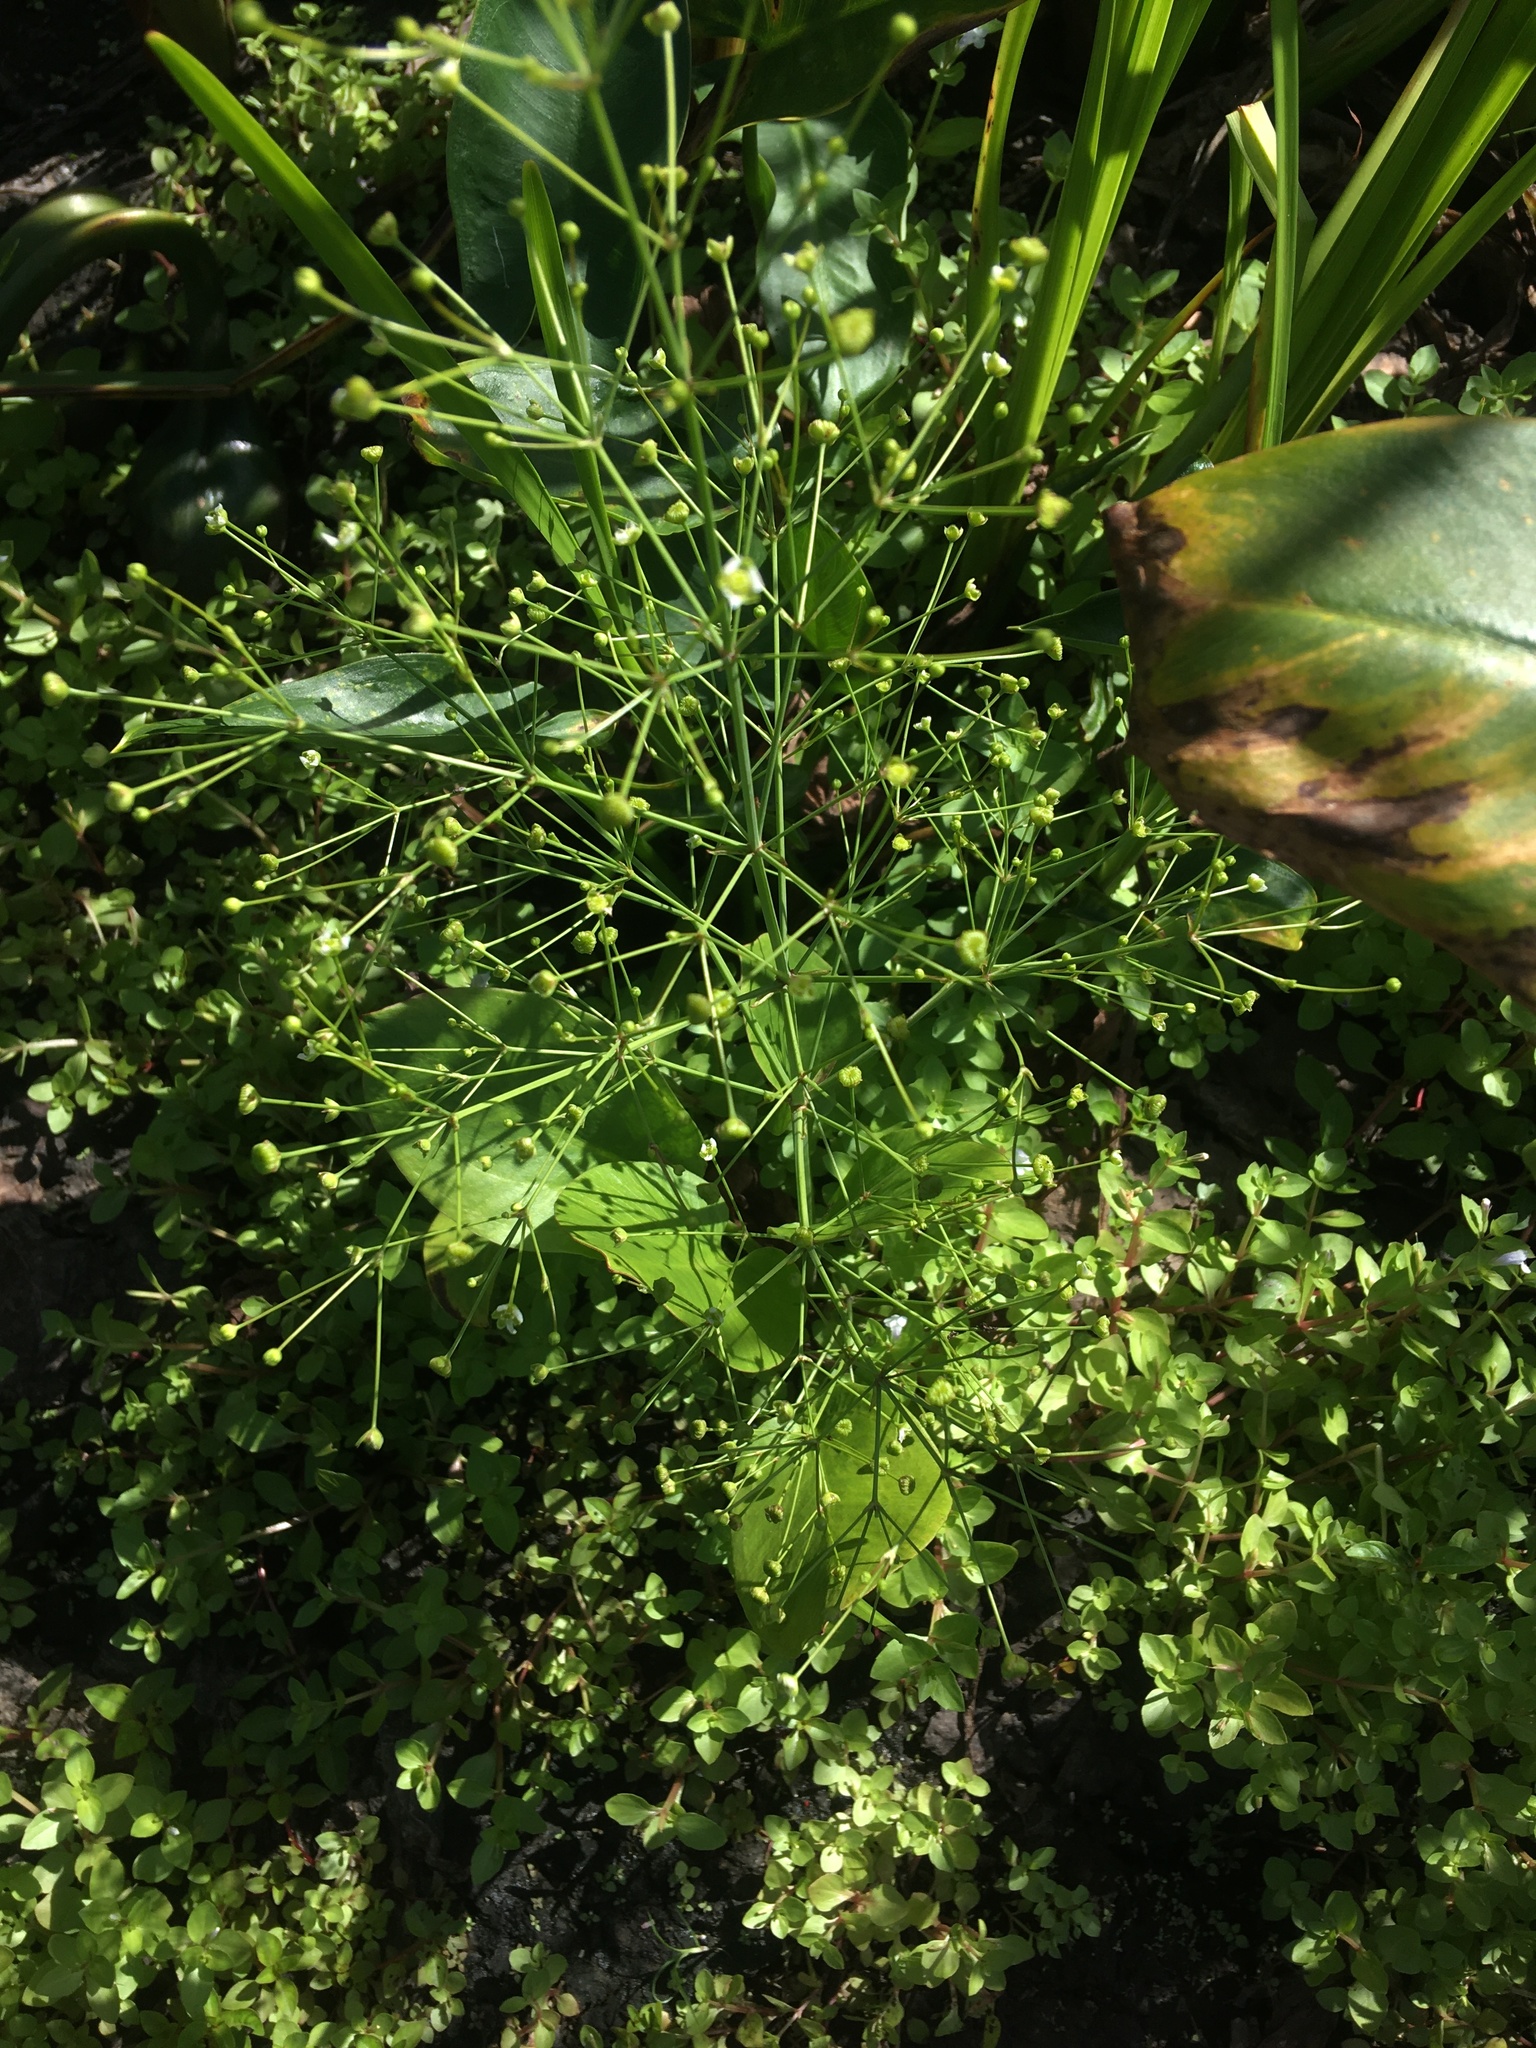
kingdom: Plantae
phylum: Tracheophyta
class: Liliopsida
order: Alismatales
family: Alismataceae
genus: Alisma
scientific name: Alisma subcordatum
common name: Southern water-plantain
